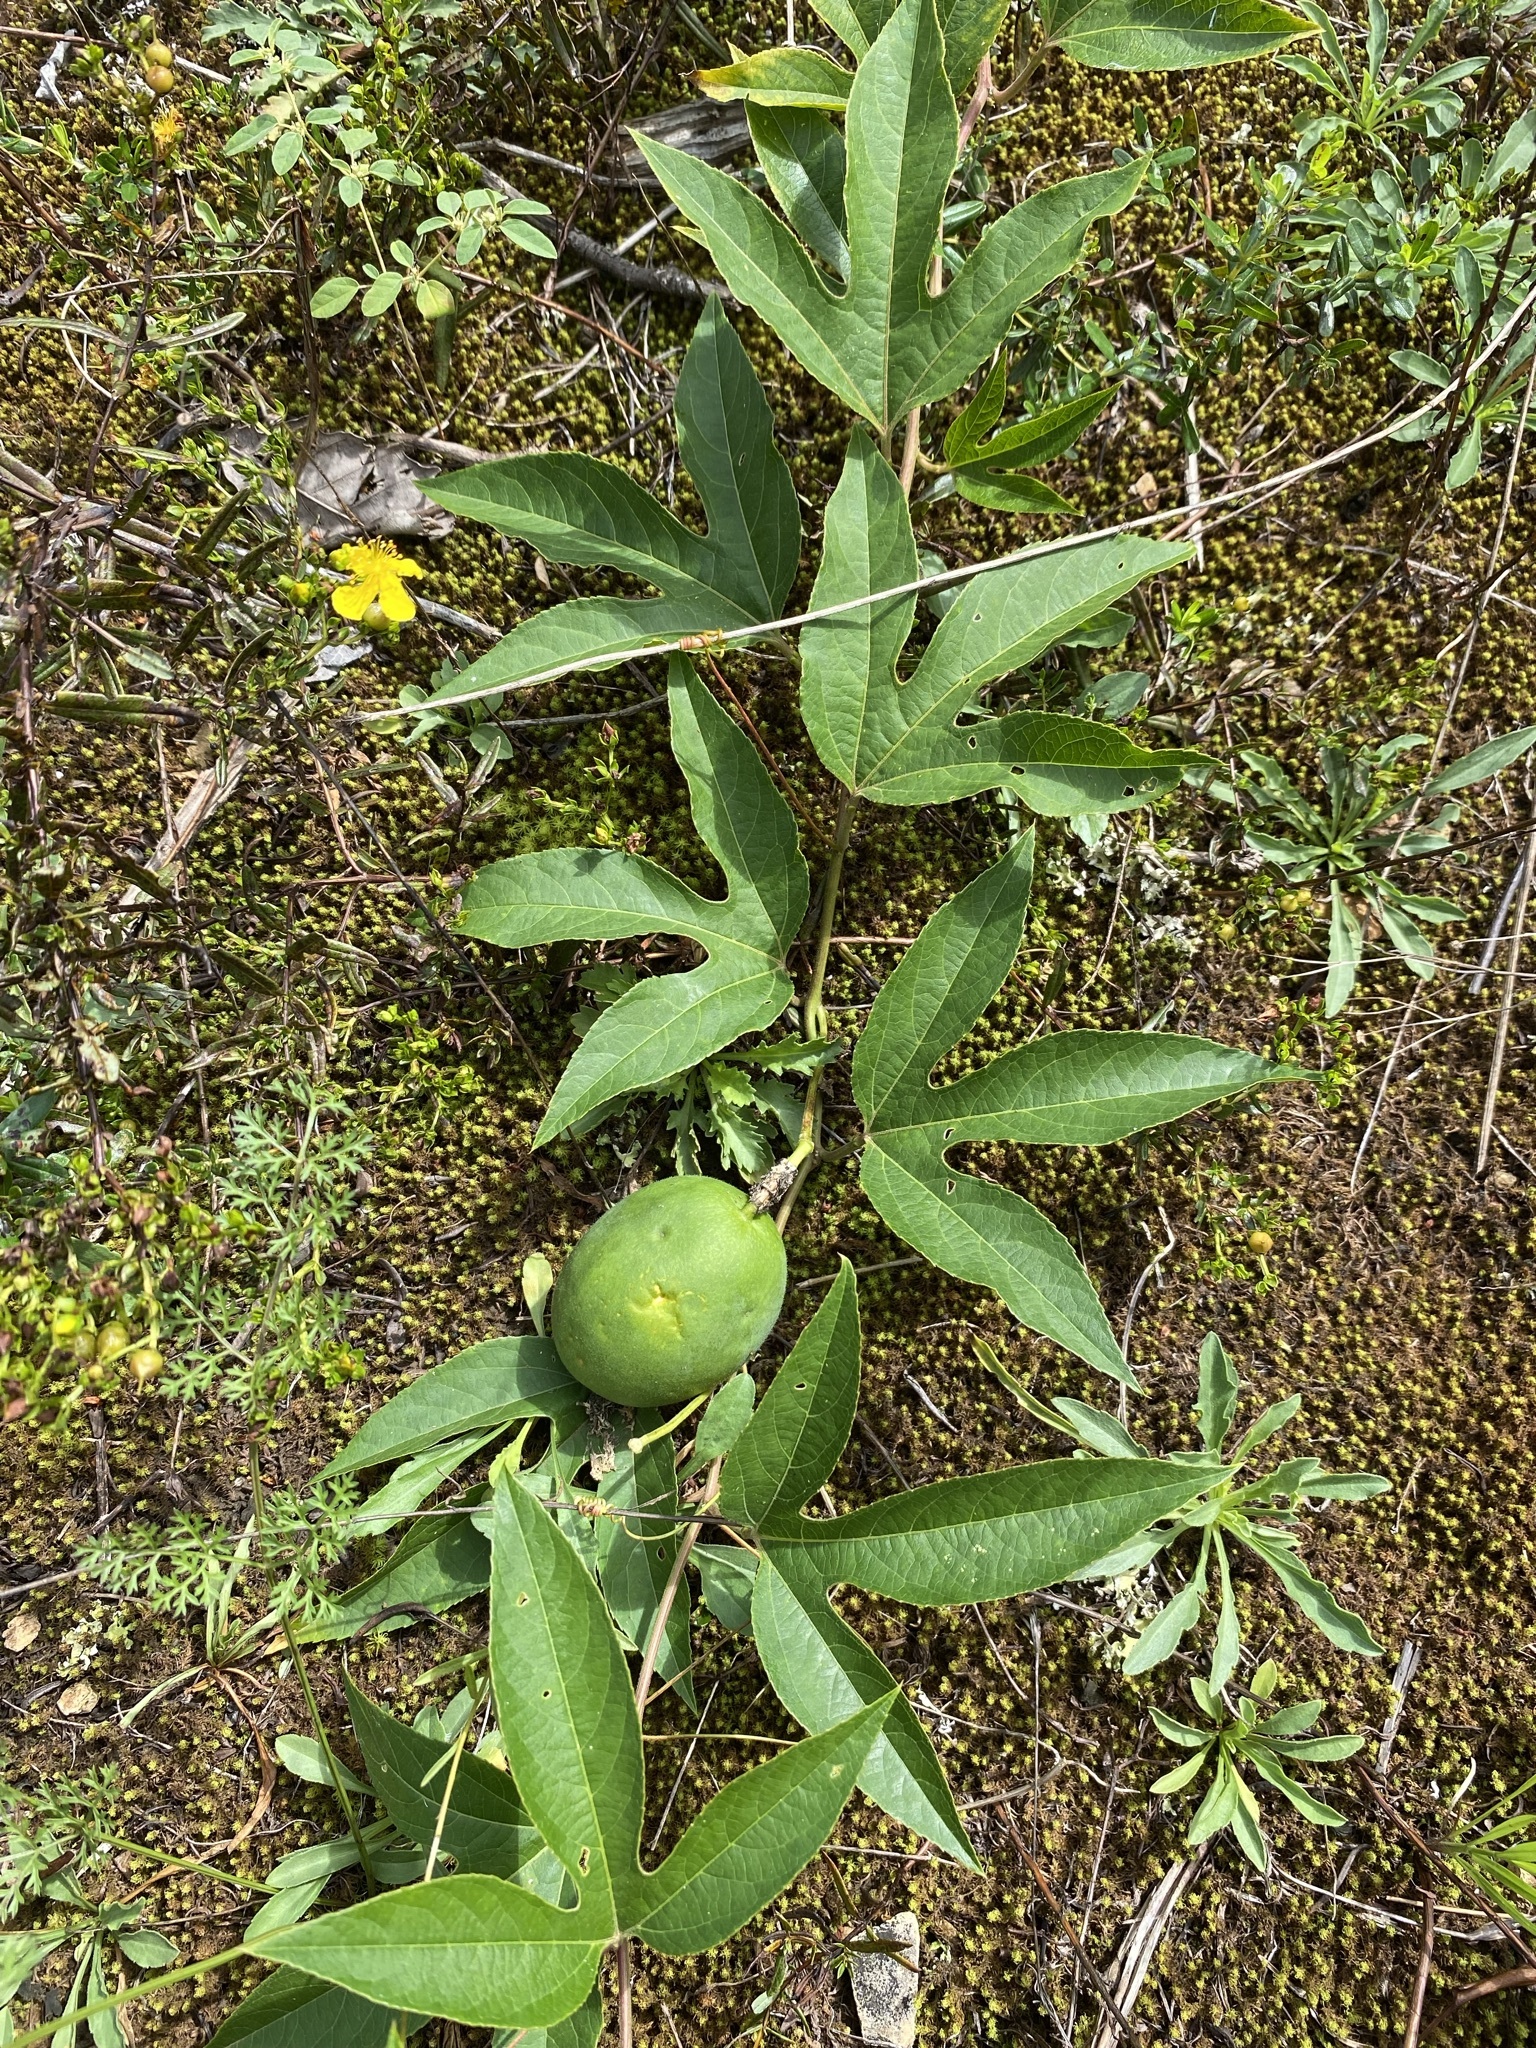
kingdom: Plantae
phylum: Tracheophyta
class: Magnoliopsida
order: Malpighiales
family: Passifloraceae
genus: Passiflora
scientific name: Passiflora incarnata
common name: Apricot-vine
